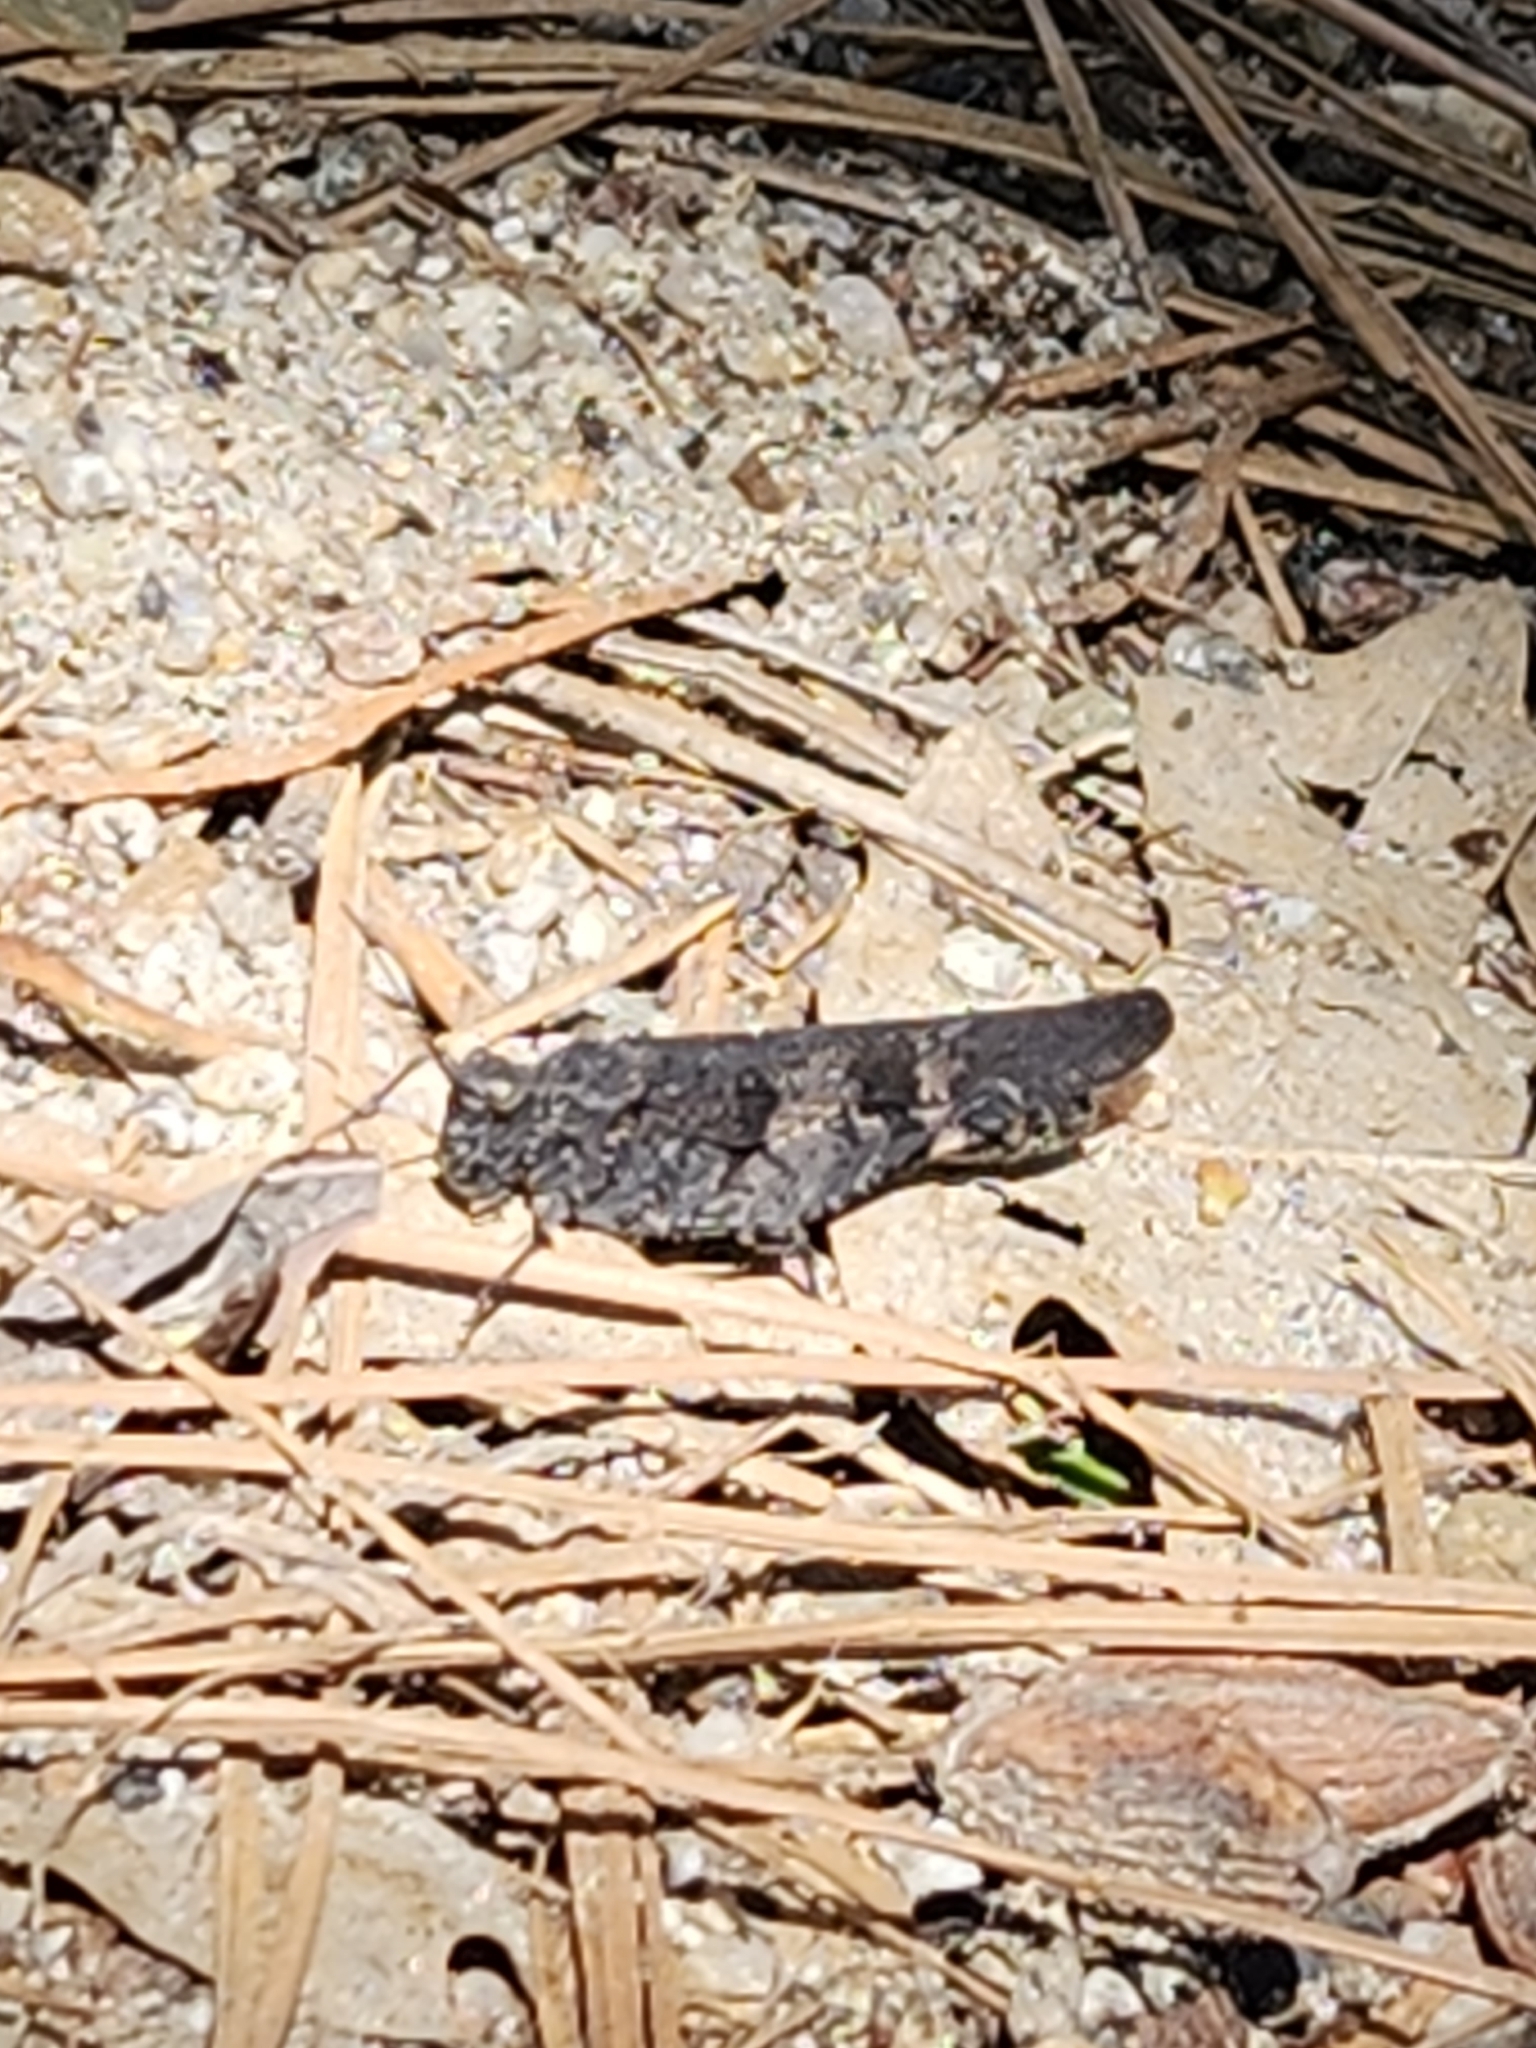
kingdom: Animalia
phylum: Arthropoda
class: Insecta
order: Orthoptera
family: Acrididae
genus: Trimerotropis
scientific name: Trimerotropis fontana
